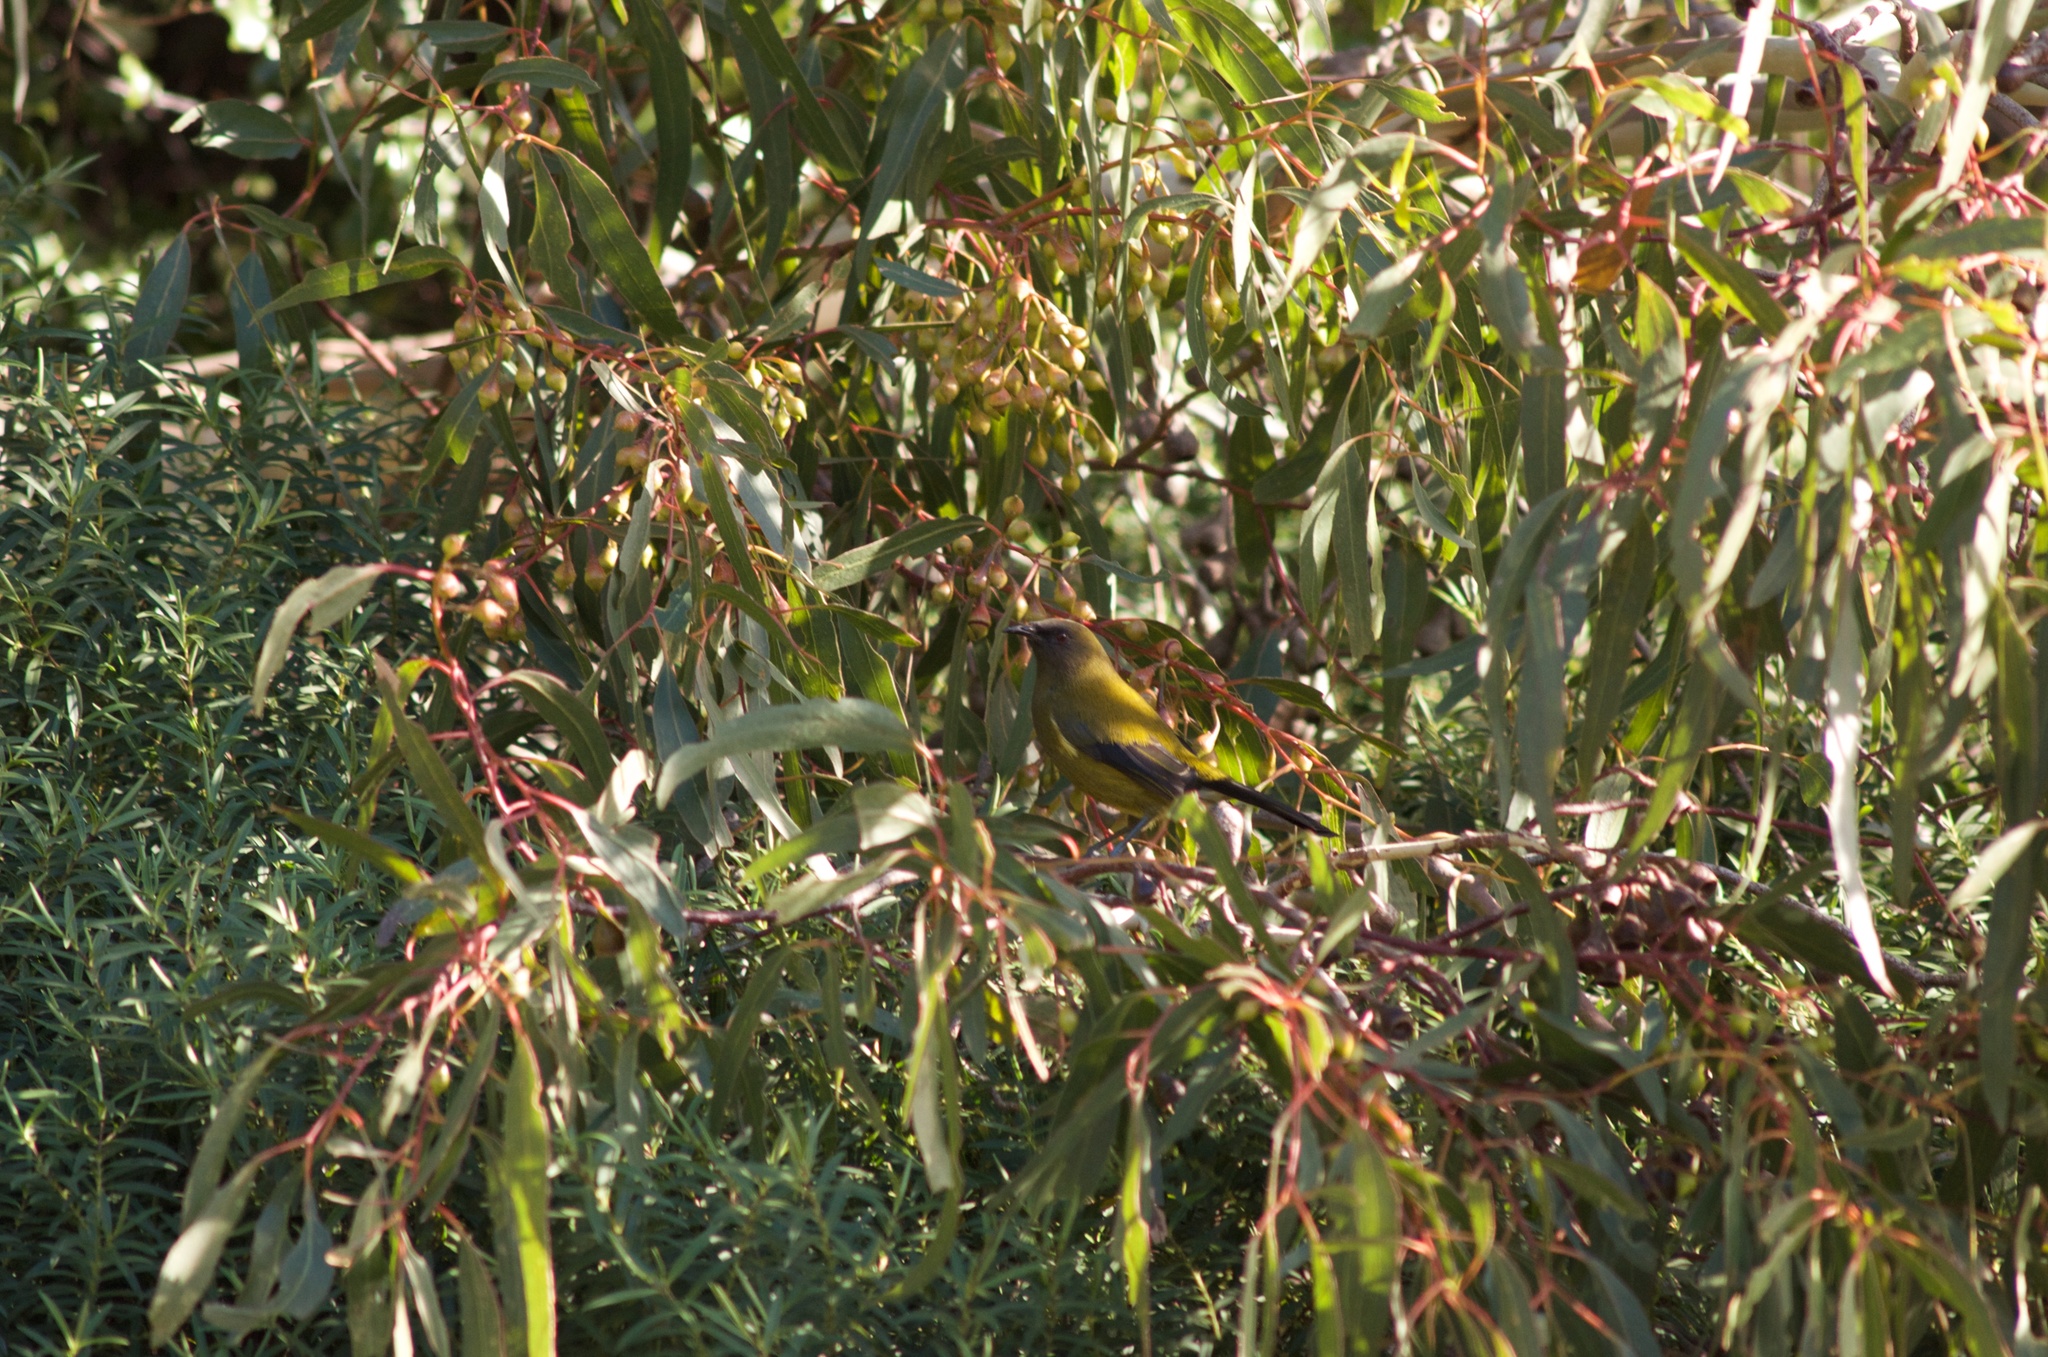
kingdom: Animalia
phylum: Chordata
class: Aves
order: Passeriformes
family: Meliphagidae
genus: Anthornis
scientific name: Anthornis melanura
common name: New zealand bellbird
